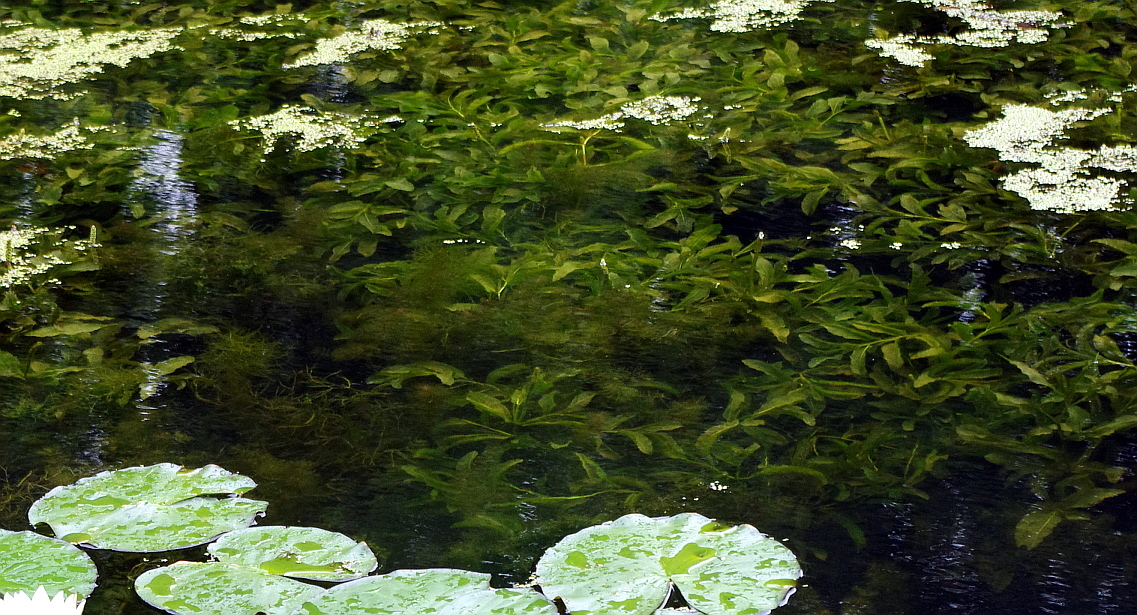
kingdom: Plantae
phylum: Tracheophyta
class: Liliopsida
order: Alismatales
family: Potamogetonaceae
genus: Potamogeton
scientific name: Potamogeton lucens
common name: Shining pondweed
